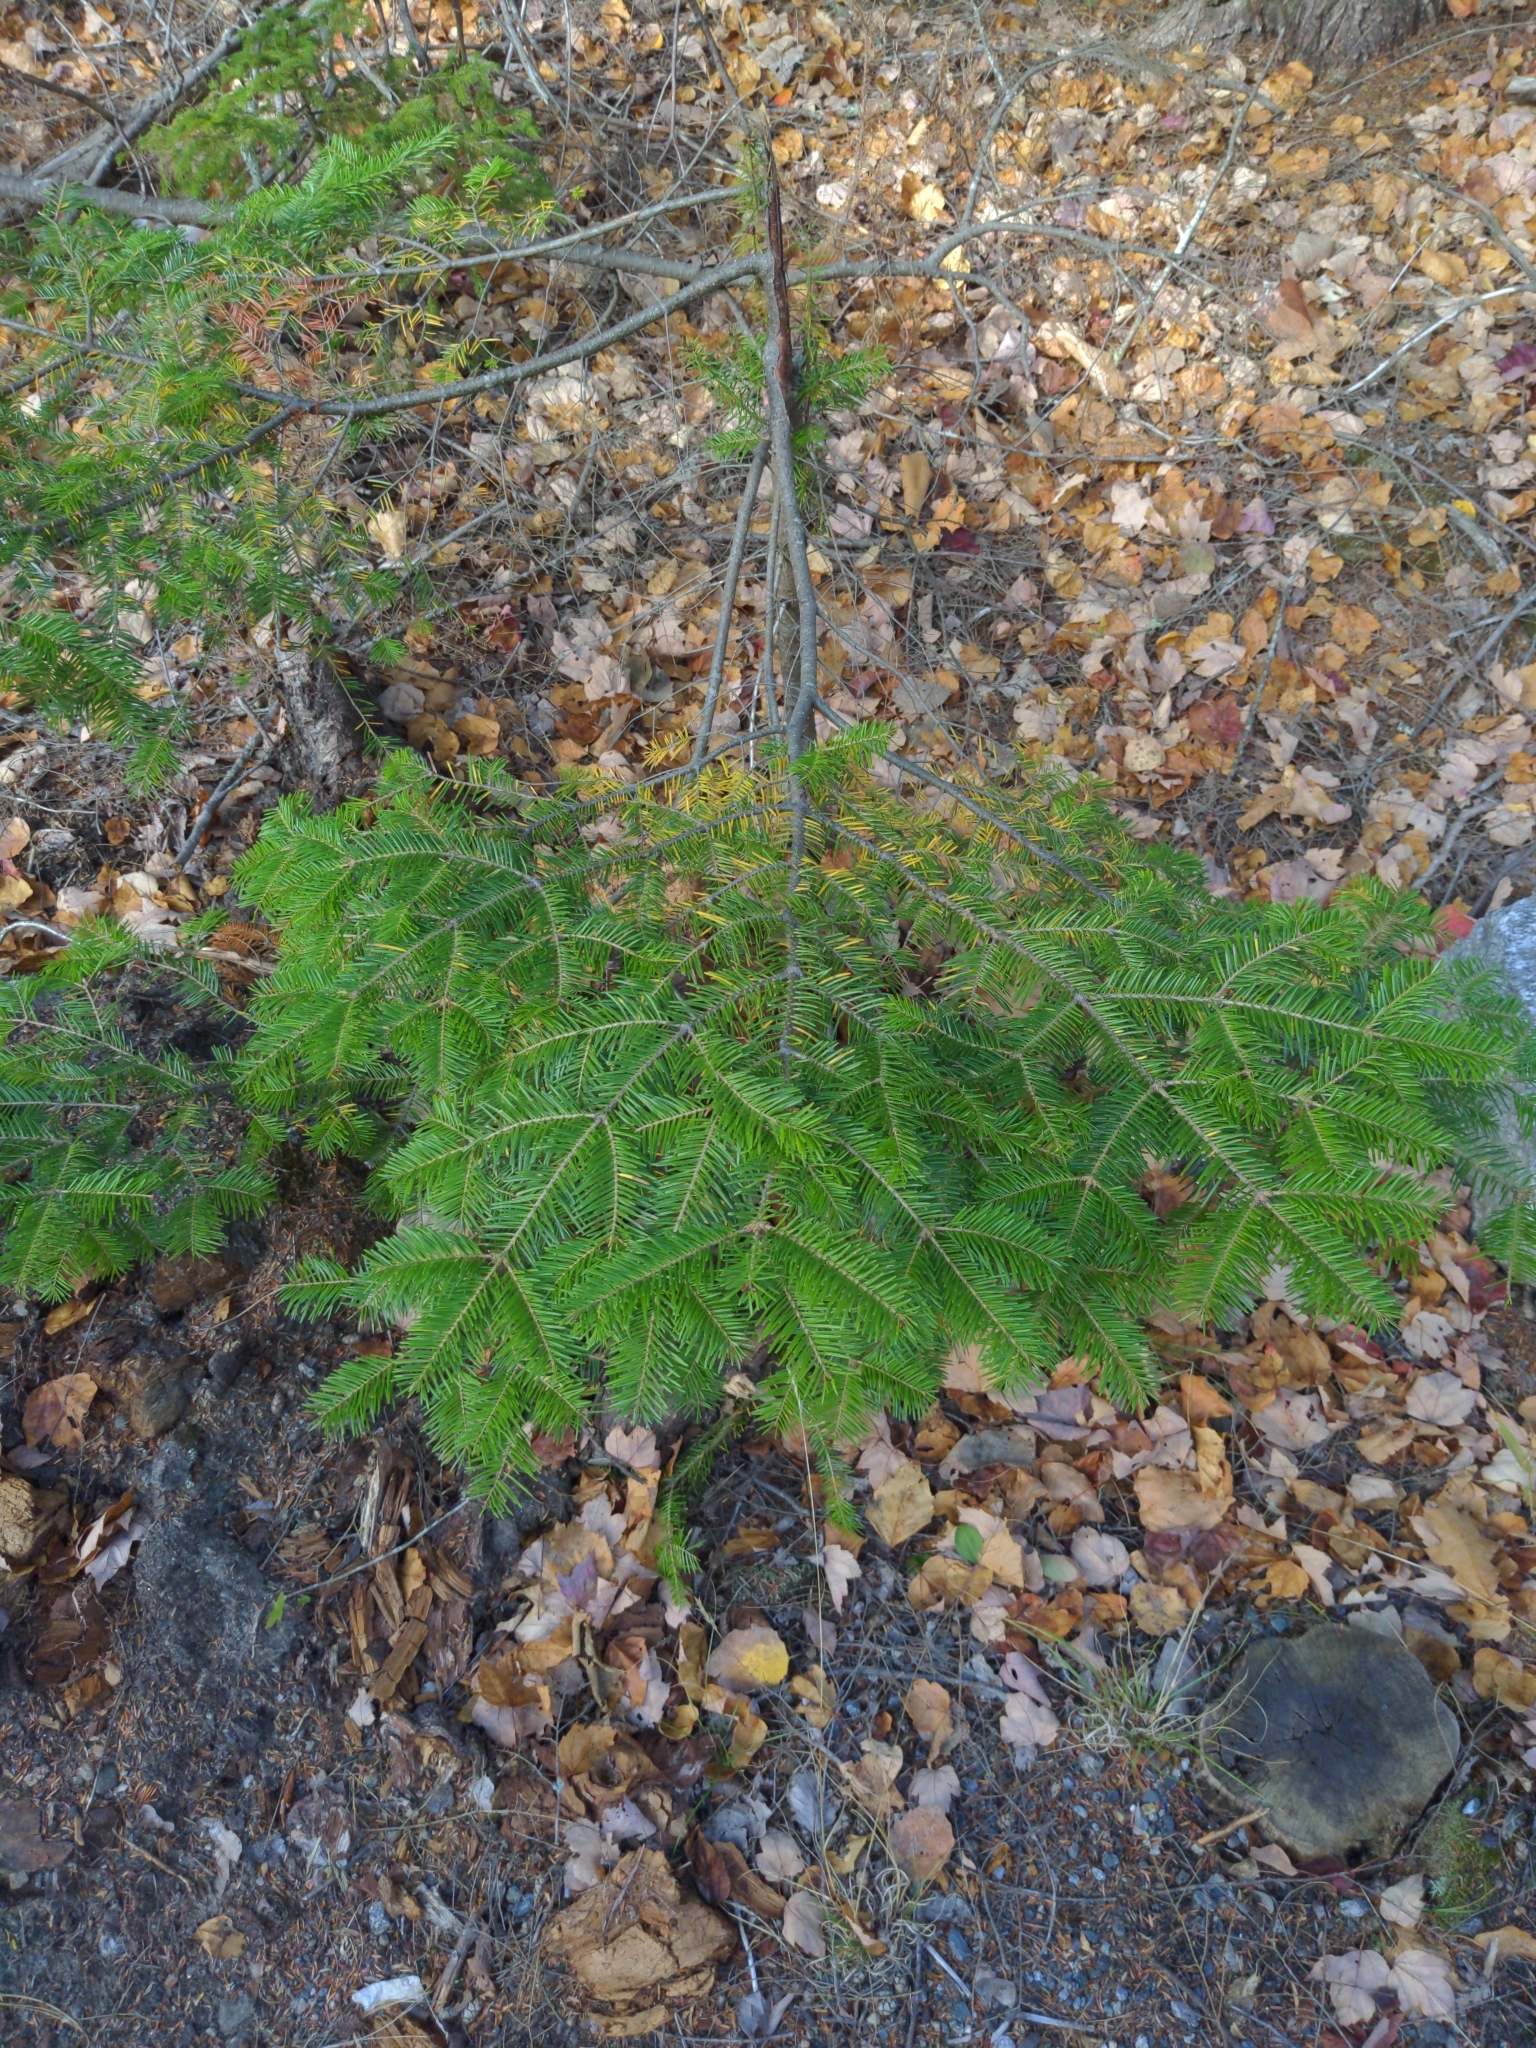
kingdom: Plantae
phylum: Tracheophyta
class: Pinopsida
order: Pinales
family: Pinaceae
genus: Abies
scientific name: Abies balsamea
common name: Balsam fir
